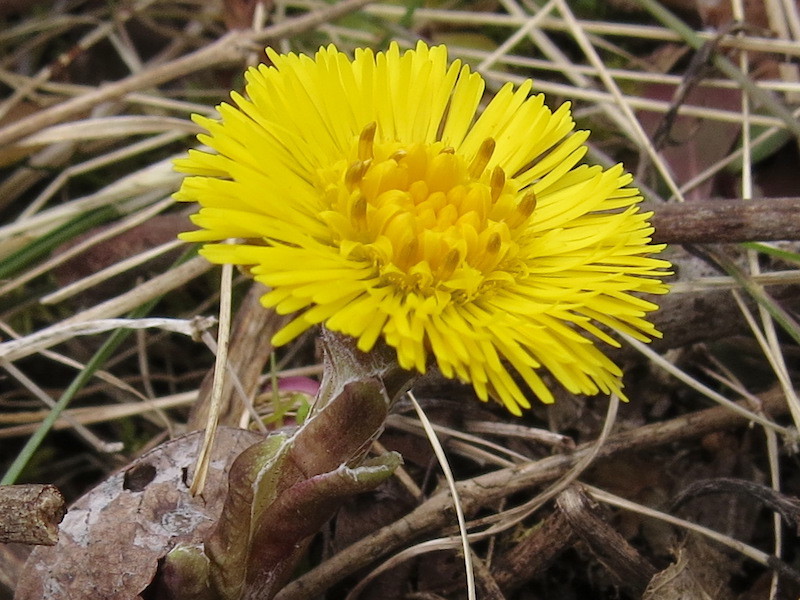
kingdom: Plantae
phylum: Tracheophyta
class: Magnoliopsida
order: Asterales
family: Asteraceae
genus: Tussilago
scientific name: Tussilago farfara
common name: Coltsfoot
